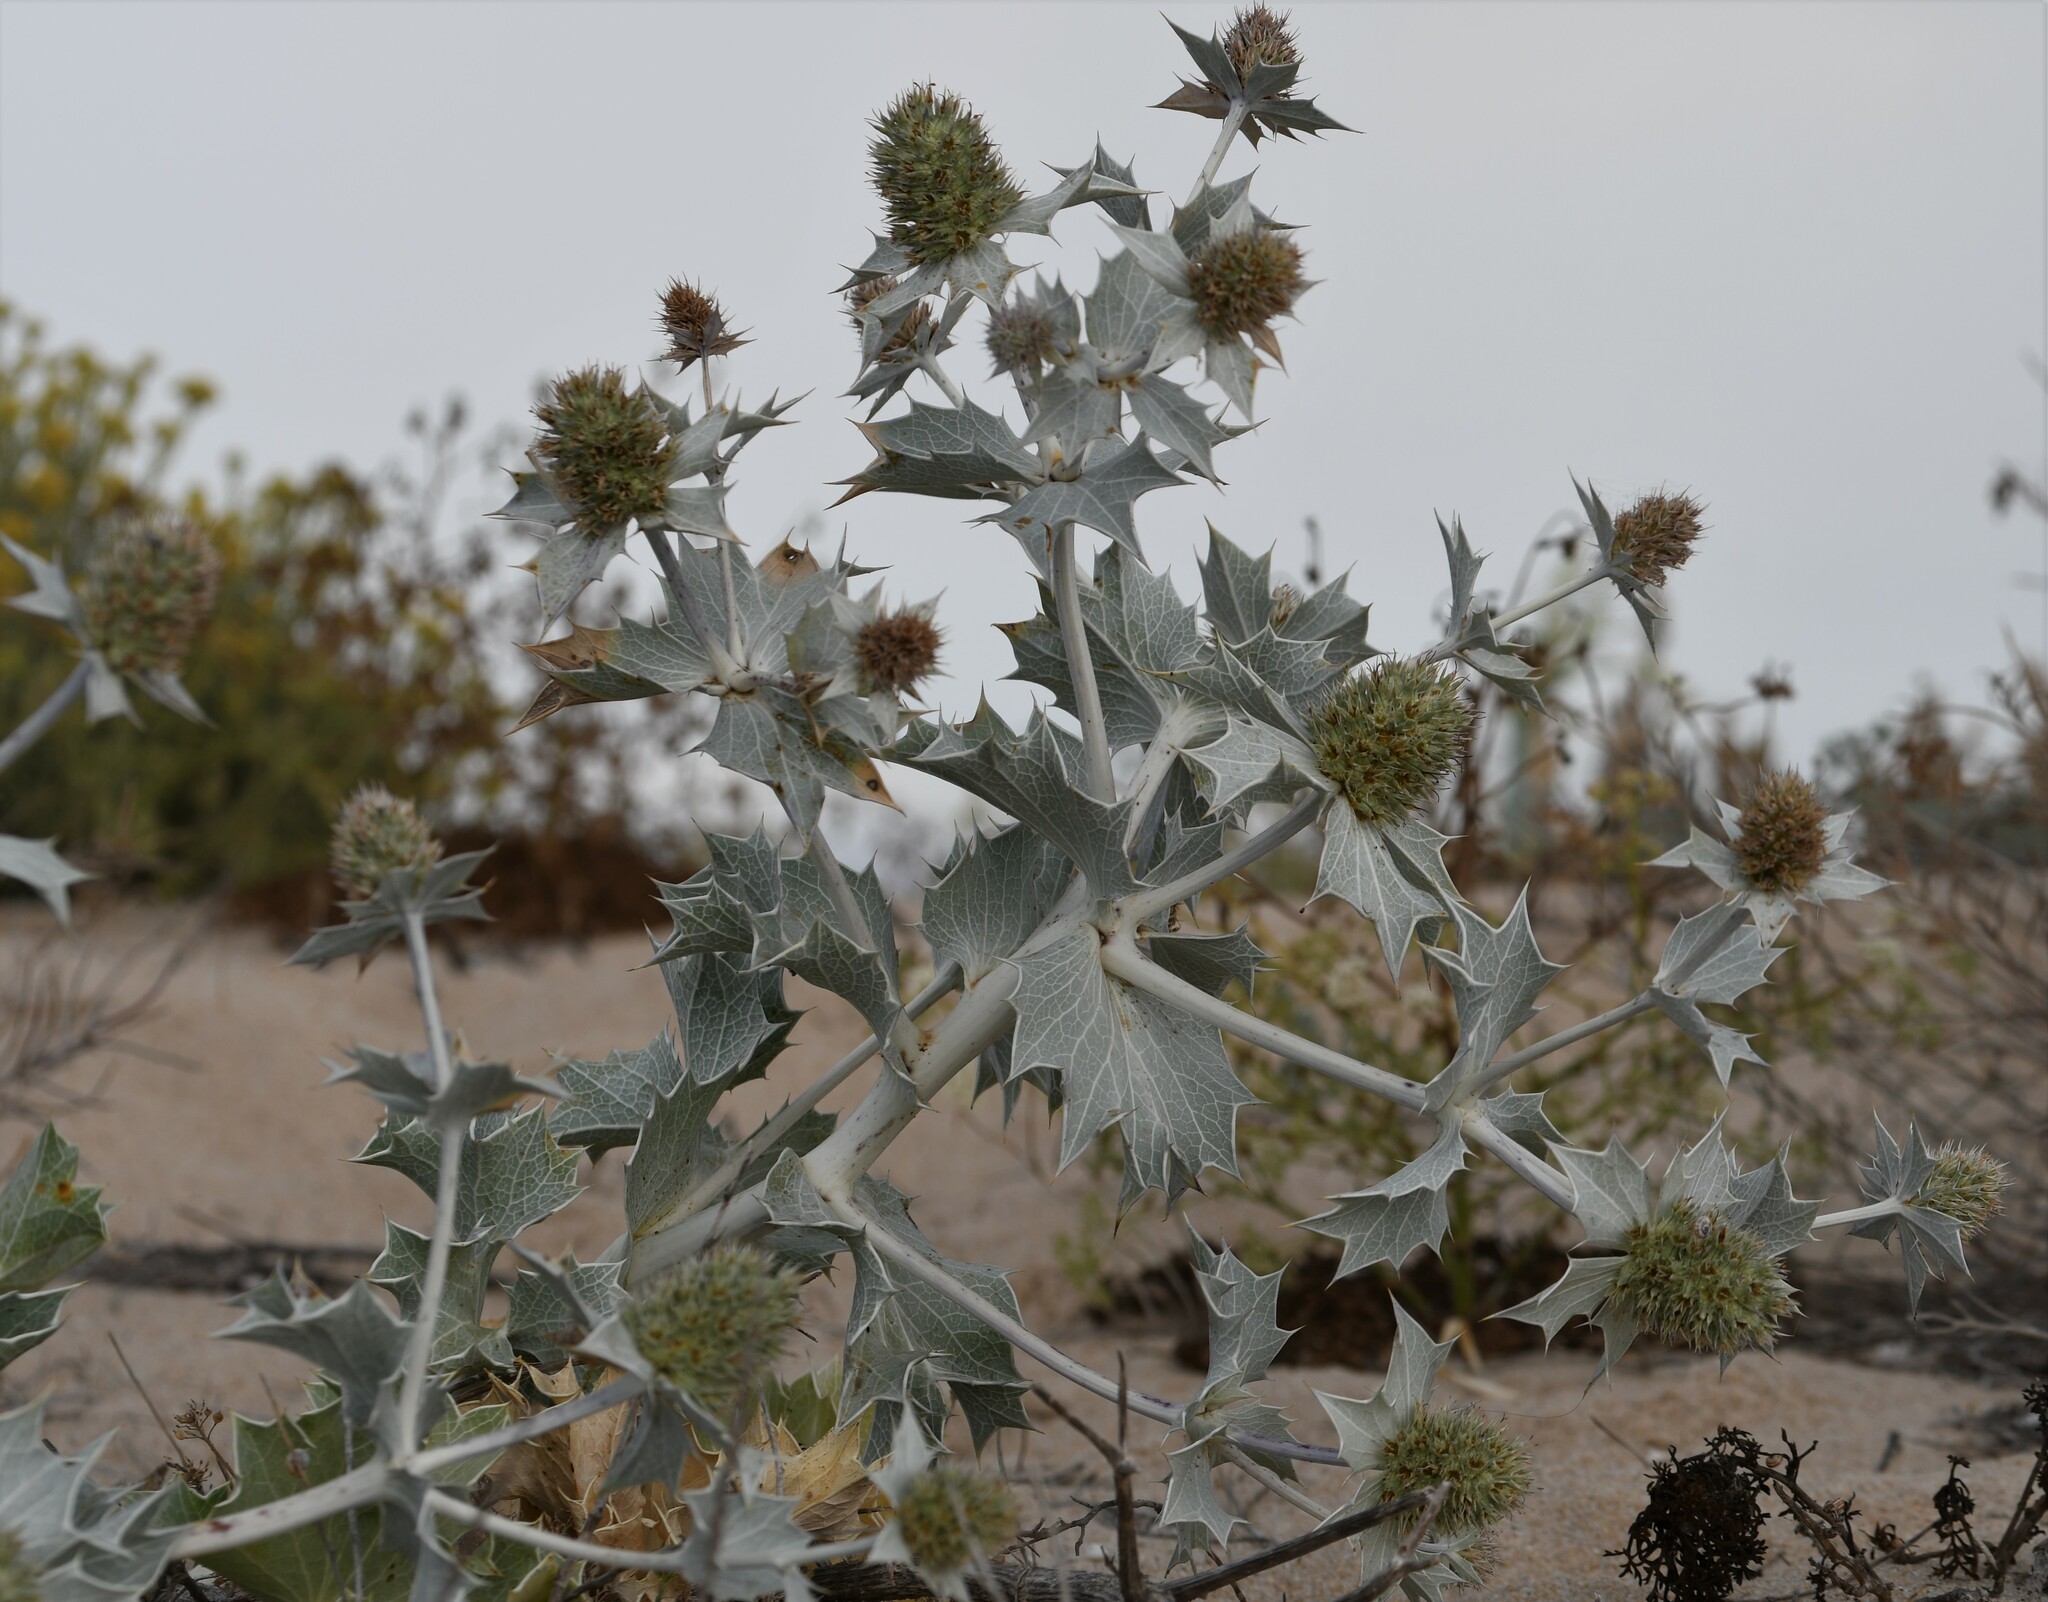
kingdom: Plantae
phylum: Tracheophyta
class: Magnoliopsida
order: Apiales
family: Apiaceae
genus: Eryngium
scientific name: Eryngium maritimum
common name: Sea-holly
